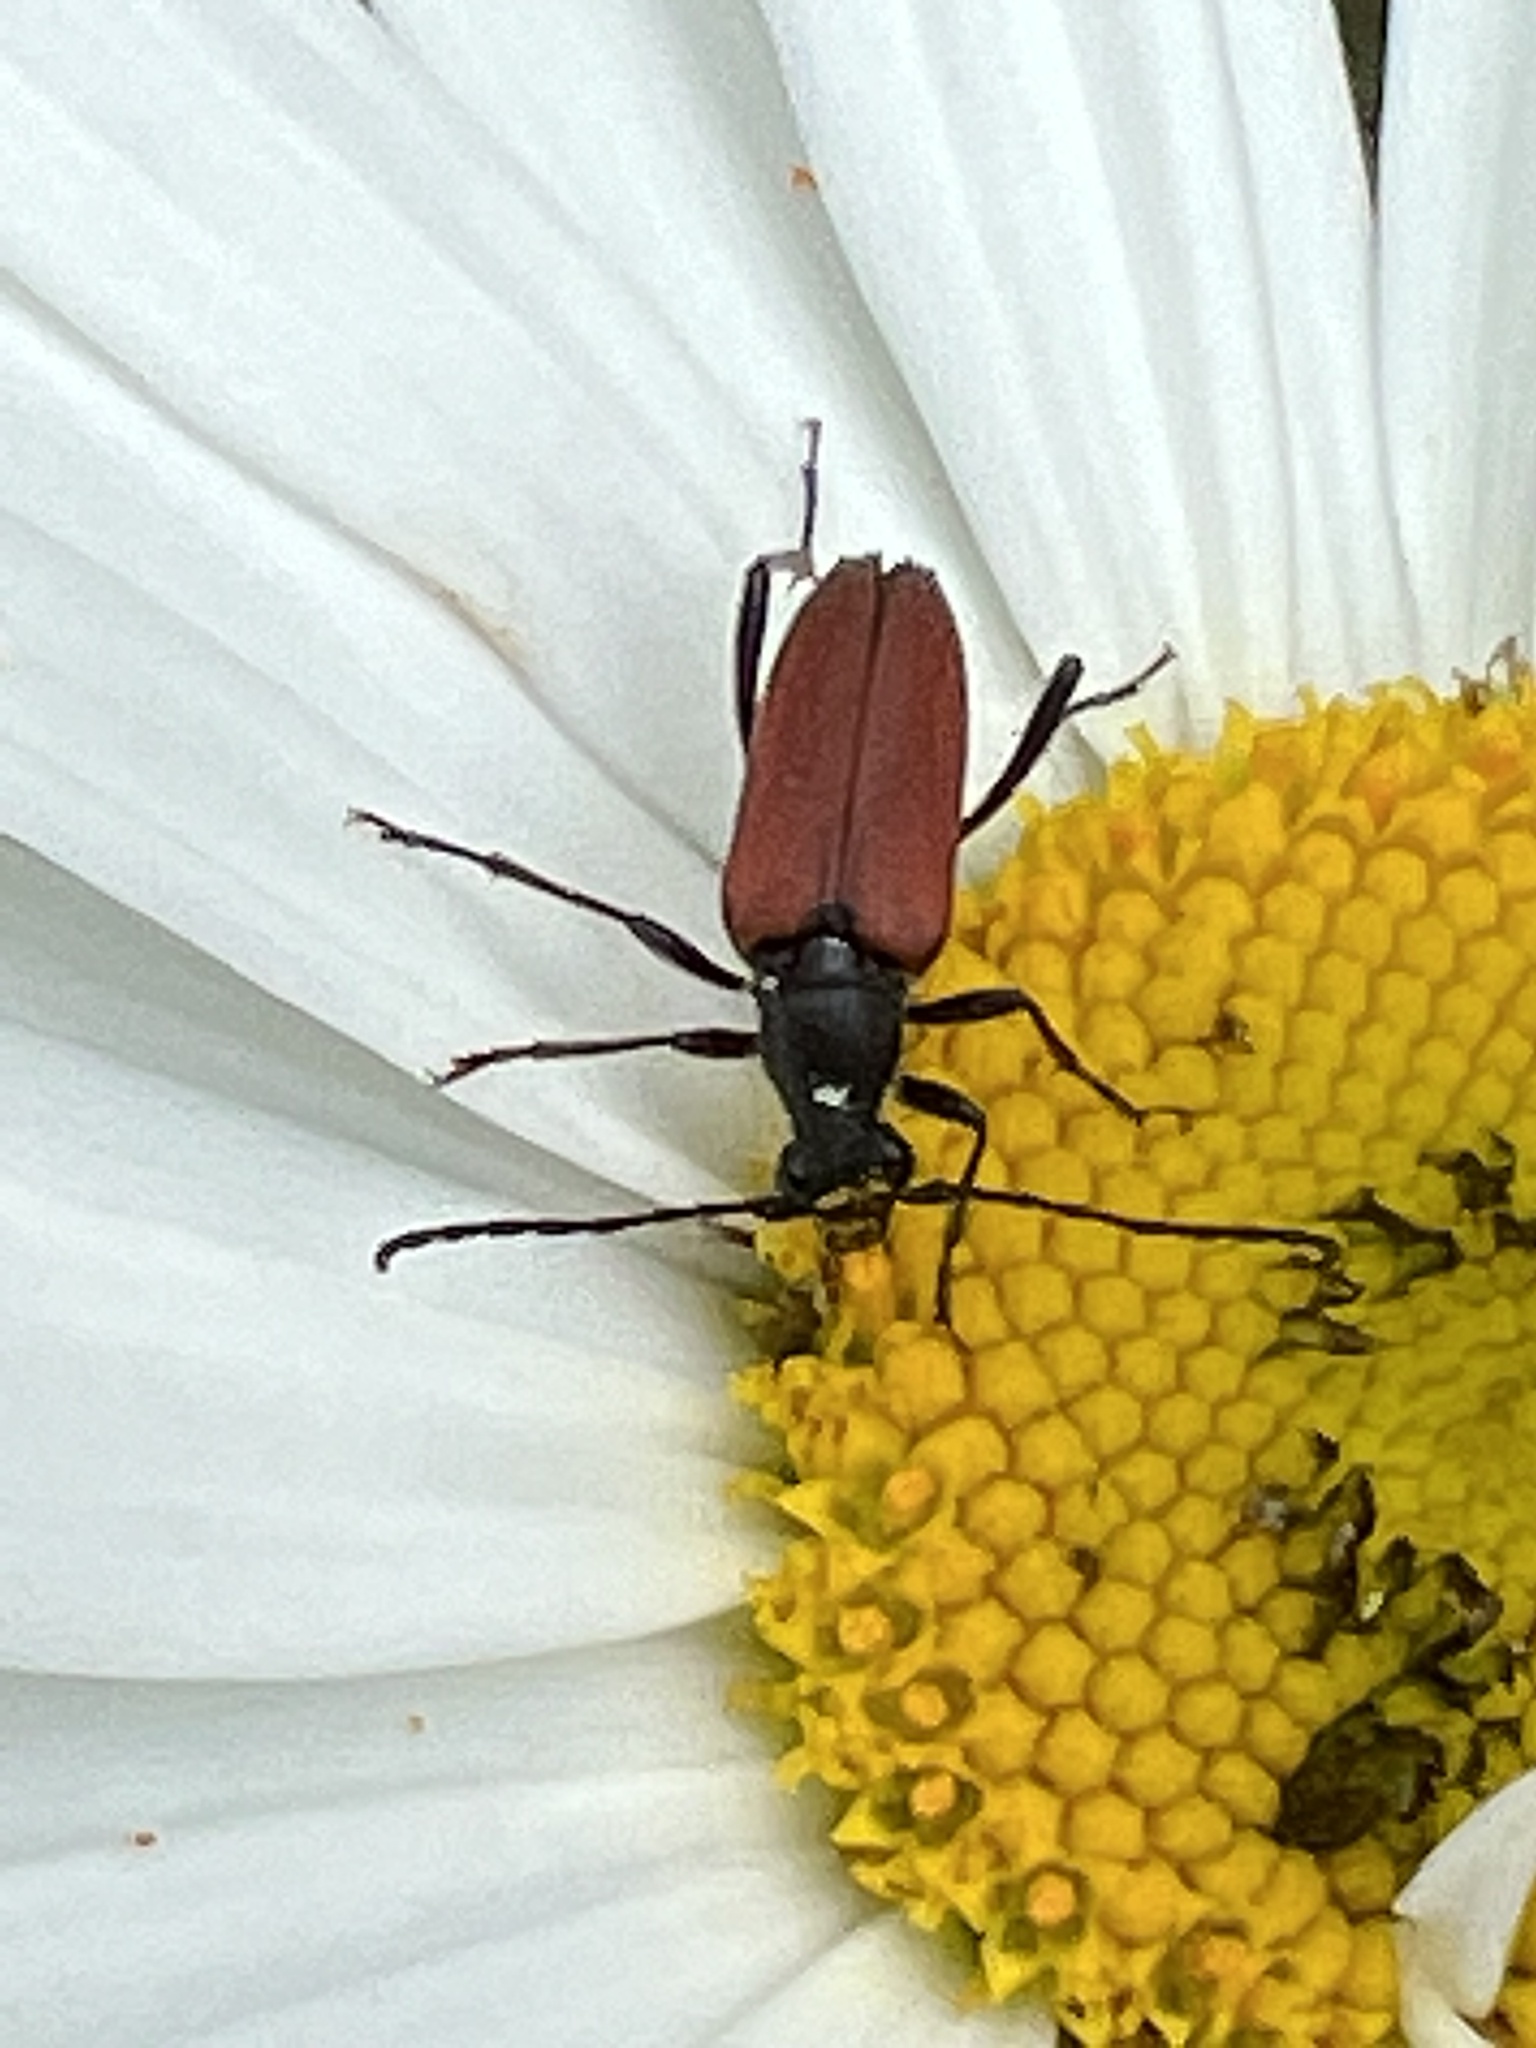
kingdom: Animalia
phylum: Arthropoda
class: Insecta
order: Coleoptera
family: Cerambycidae
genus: Anastrangalia
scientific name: Anastrangalia sanguinolenta
